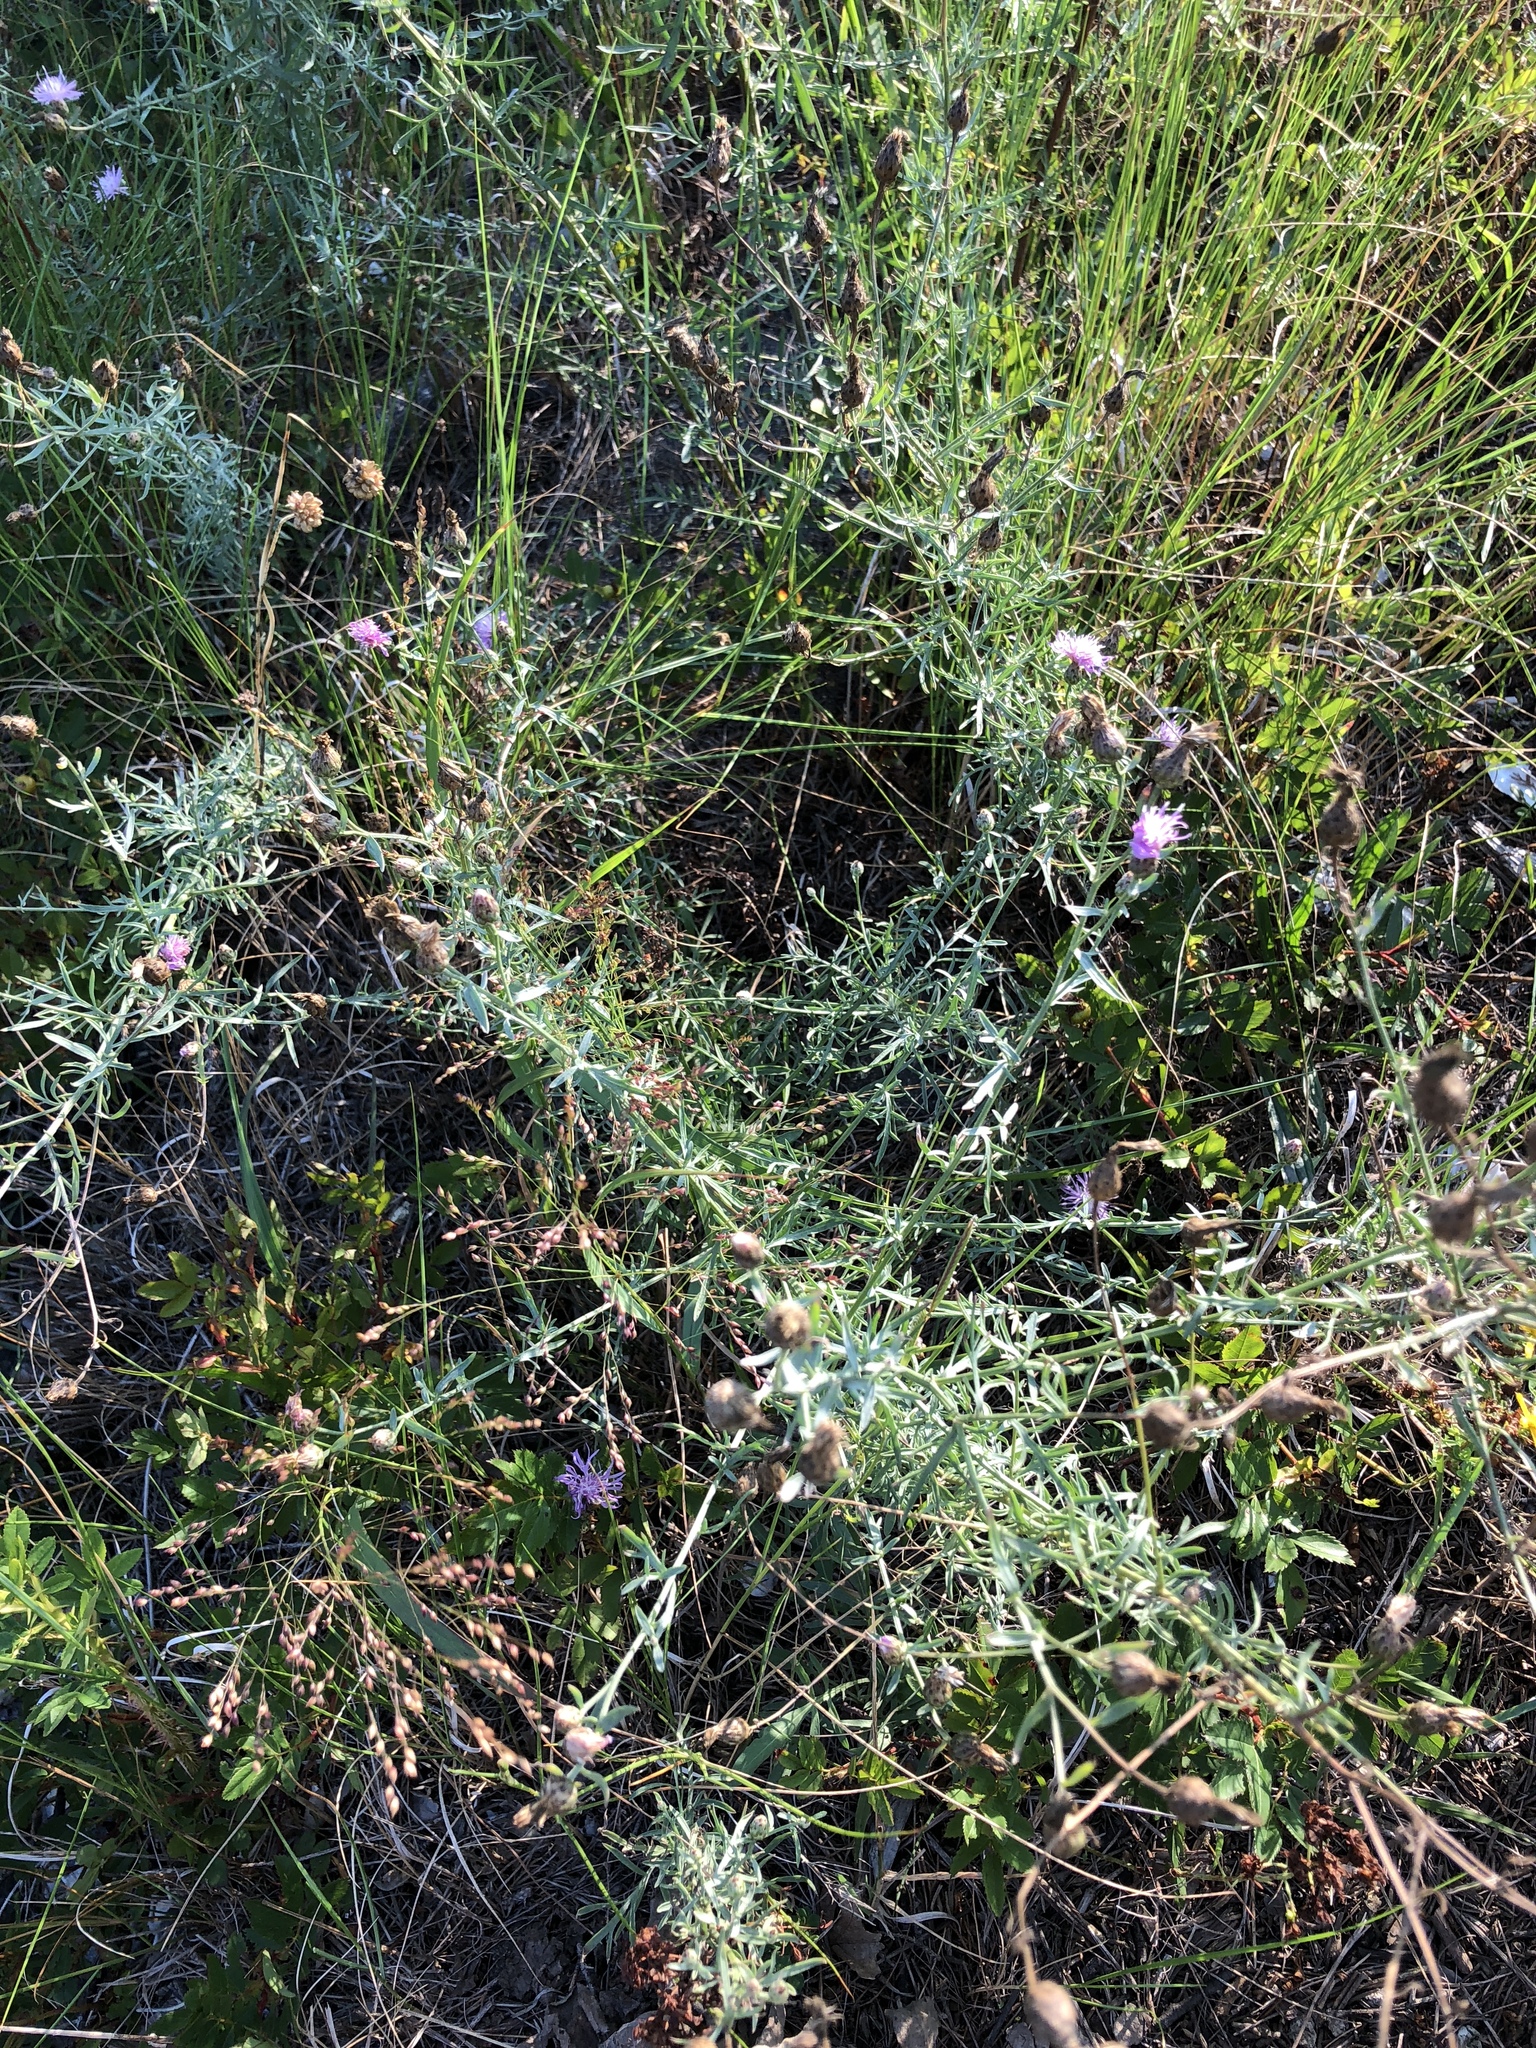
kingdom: Plantae
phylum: Tracheophyta
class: Magnoliopsida
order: Asterales
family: Asteraceae
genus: Centaurea
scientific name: Centaurea stoebe
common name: Spotted knapweed
